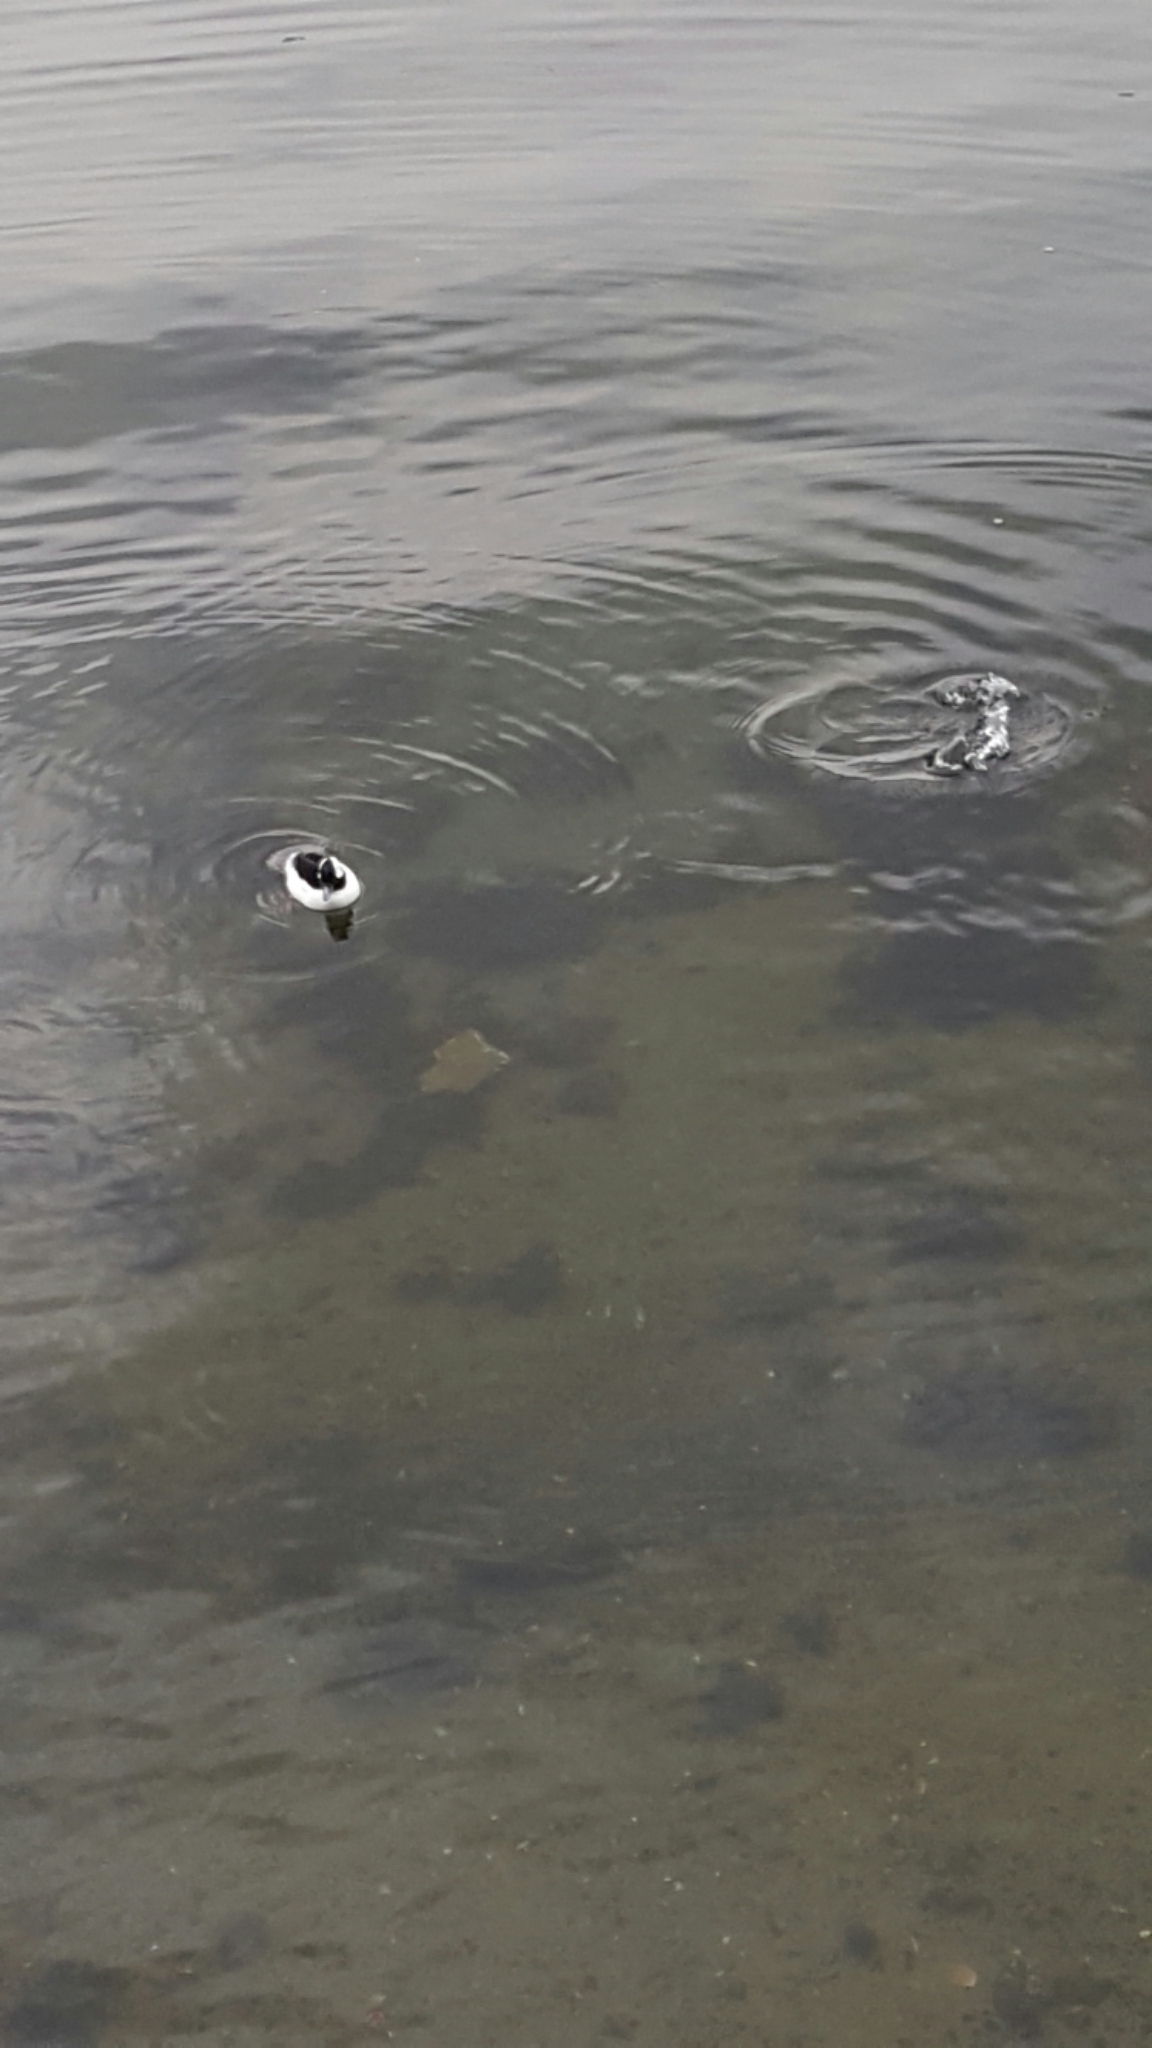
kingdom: Animalia
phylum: Chordata
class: Aves
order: Anseriformes
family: Anatidae
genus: Bucephala
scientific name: Bucephala albeola
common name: Bufflehead
